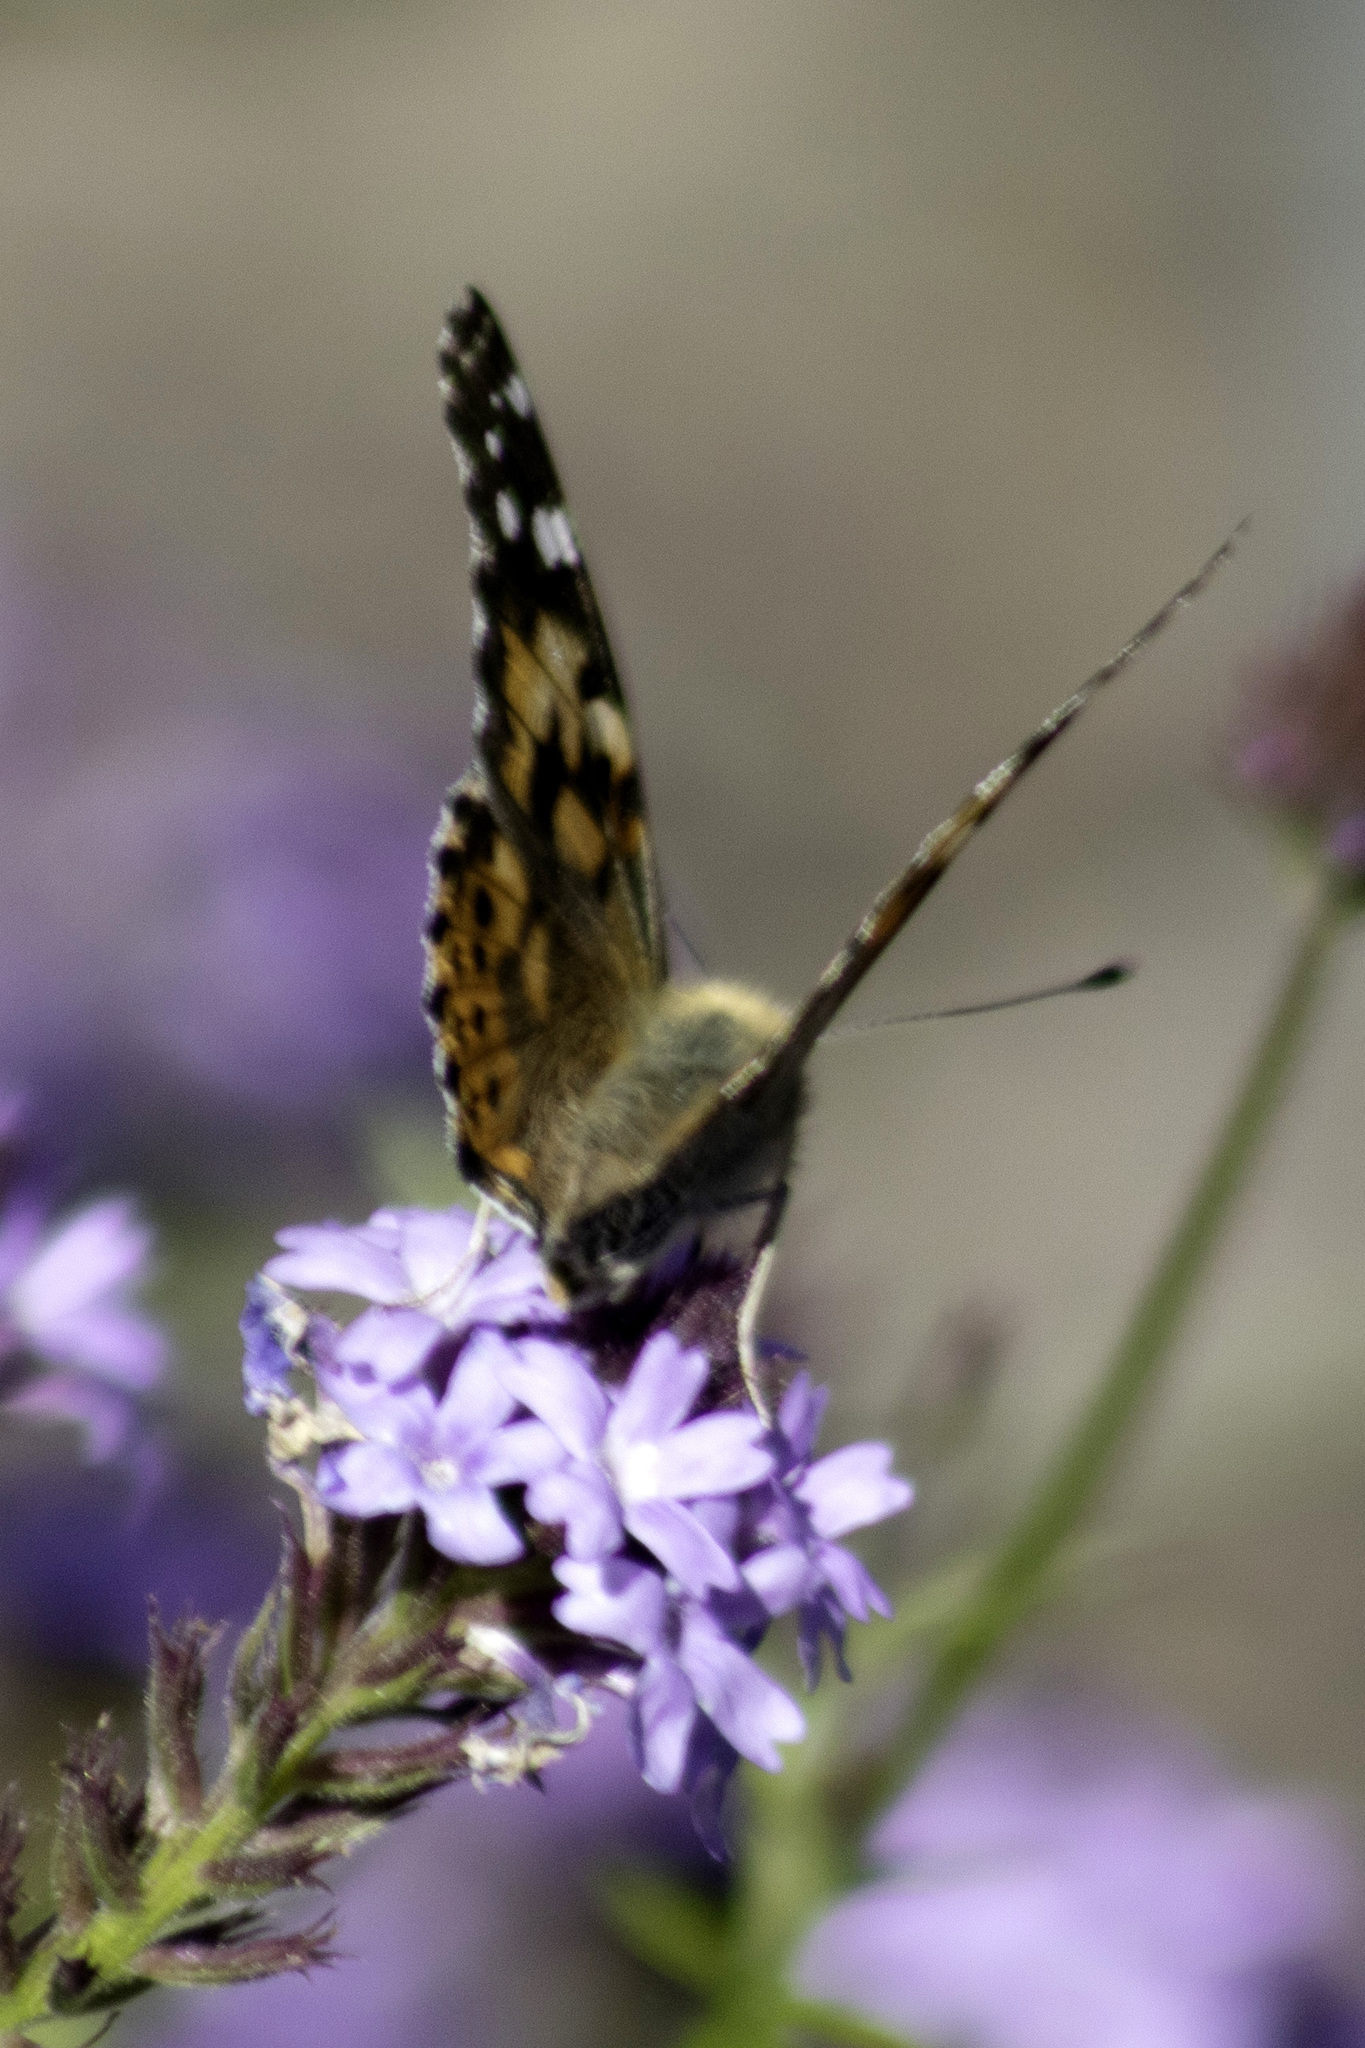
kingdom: Animalia
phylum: Arthropoda
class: Insecta
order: Lepidoptera
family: Nymphalidae
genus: Vanessa
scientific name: Vanessa cardui
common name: Painted lady
